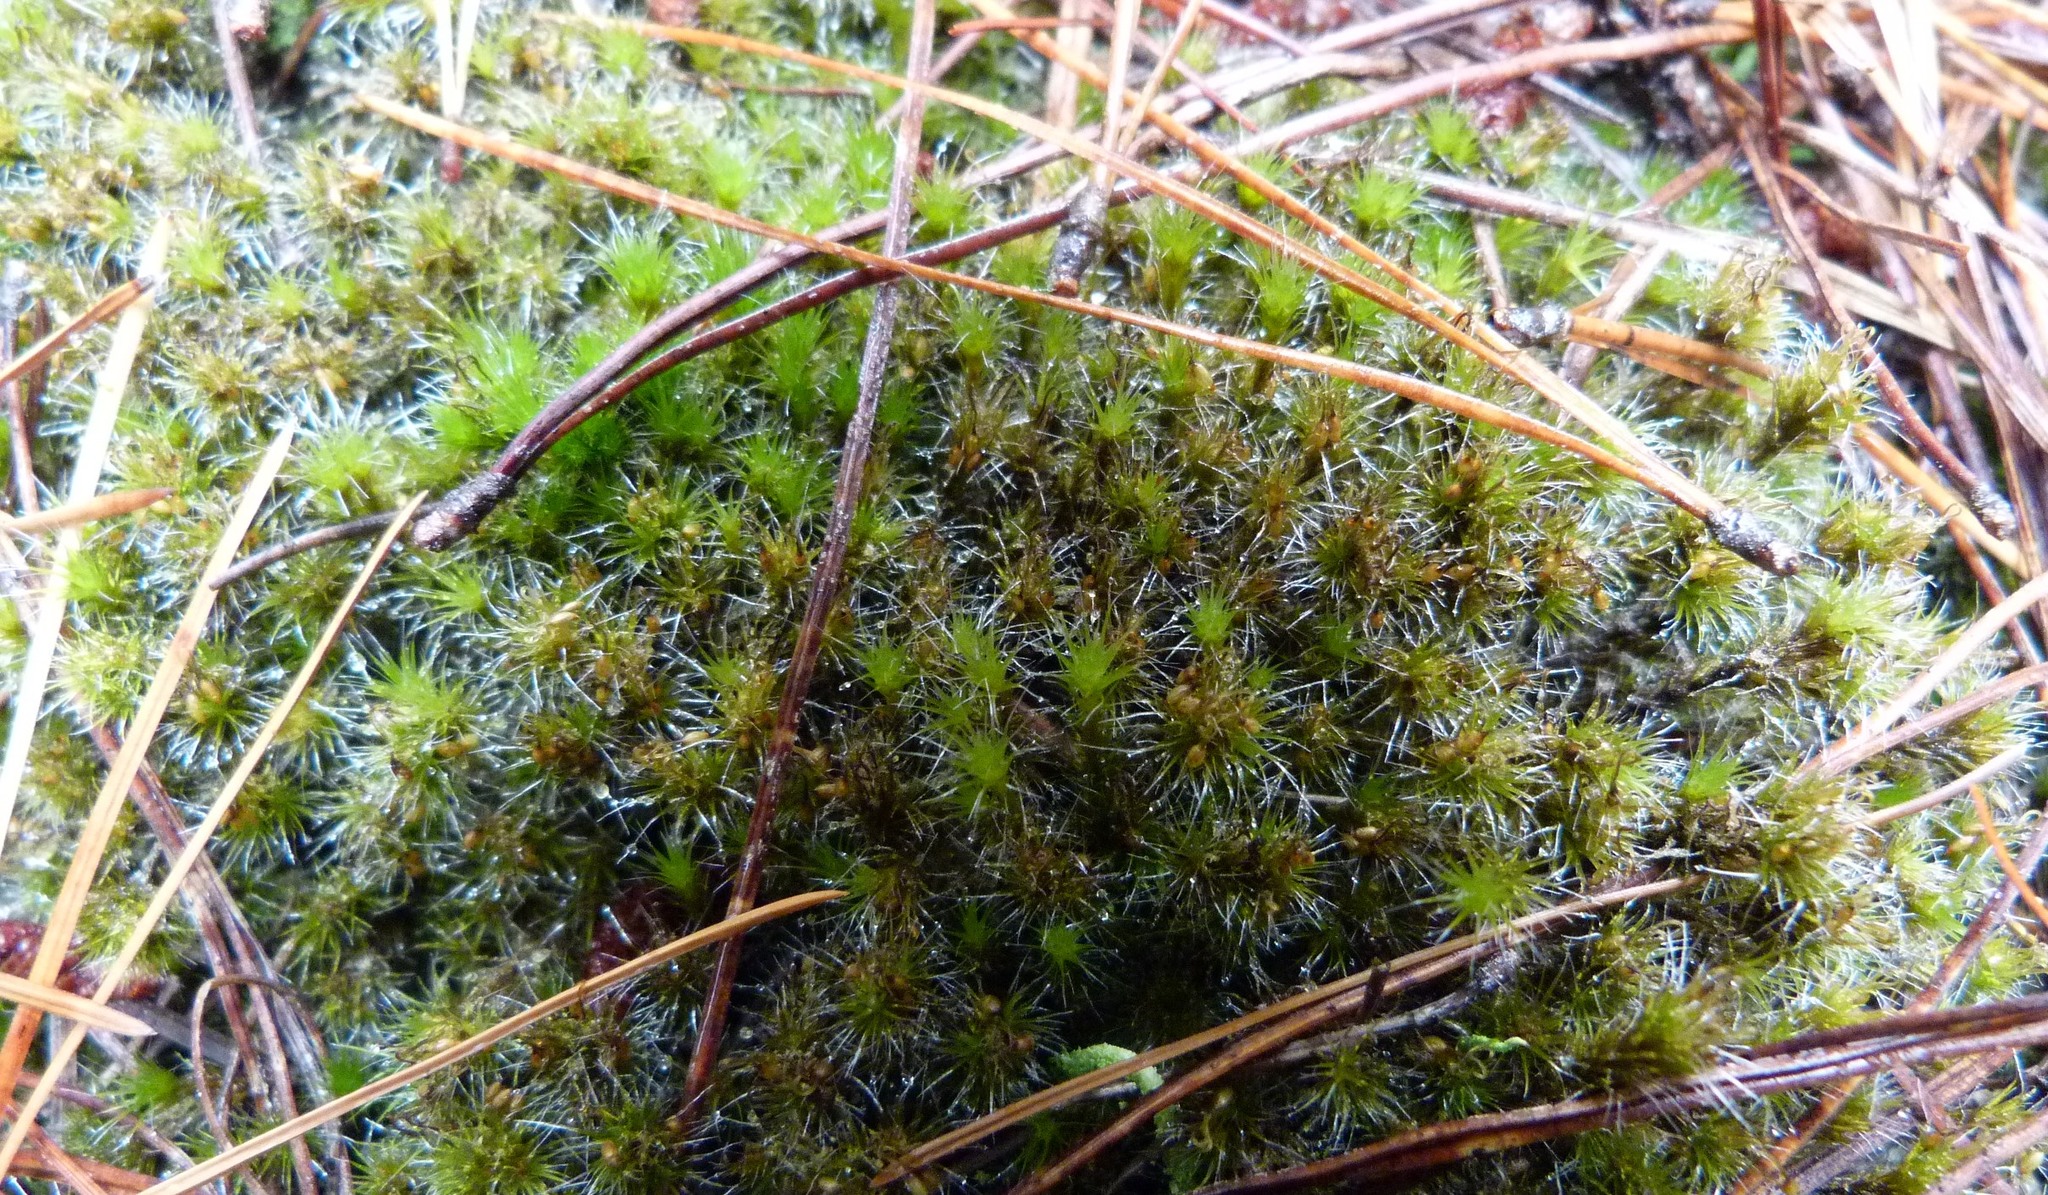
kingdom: Plantae
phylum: Bryophyta
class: Bryopsida
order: Dicranales
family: Leucobryaceae
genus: Campylopus
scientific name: Campylopus introflexus
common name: Heath star moss
